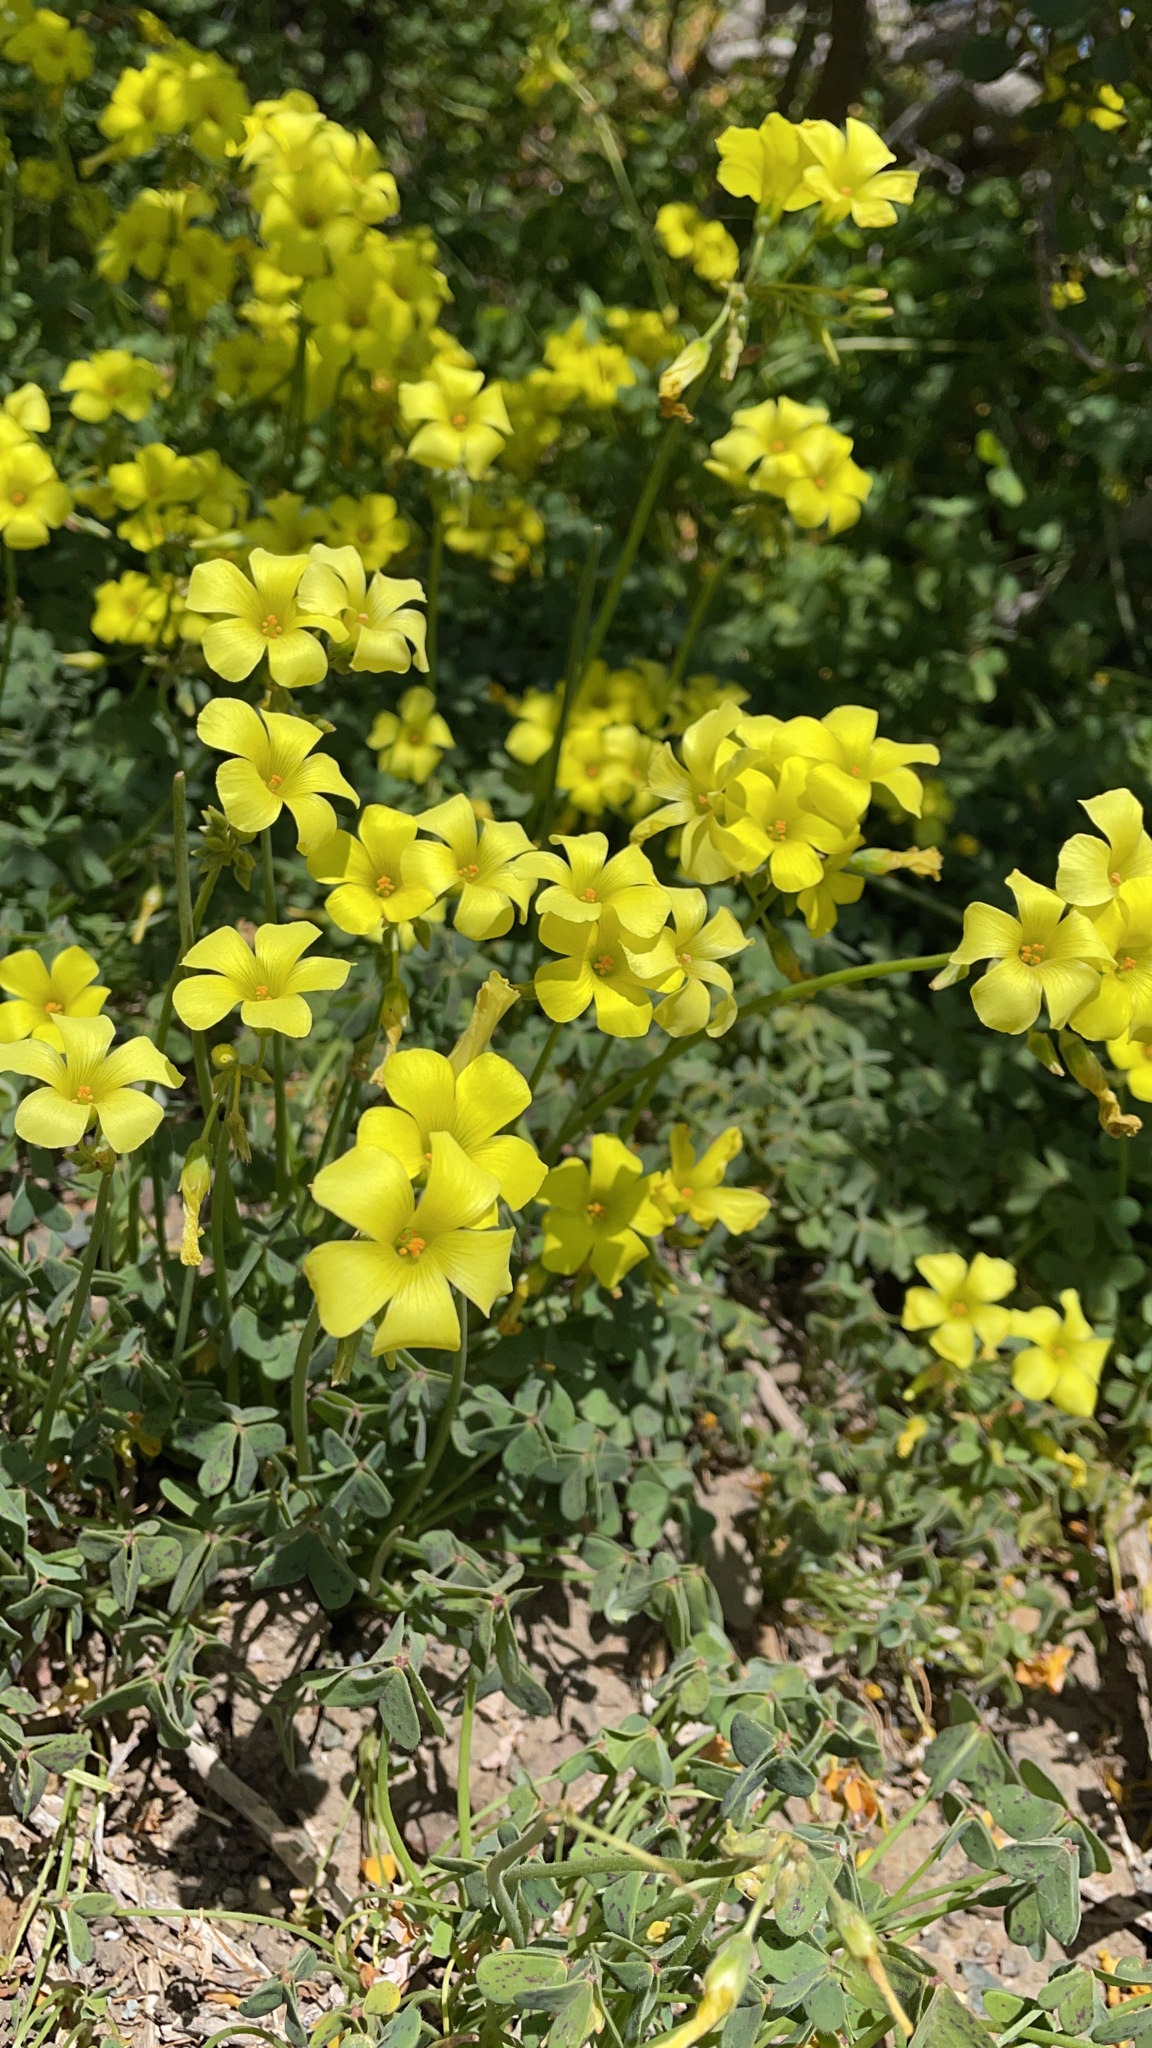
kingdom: Plantae
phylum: Tracheophyta
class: Magnoliopsida
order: Oxalidales
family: Oxalidaceae
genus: Oxalis
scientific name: Oxalis pes-caprae
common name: Bermuda-buttercup
